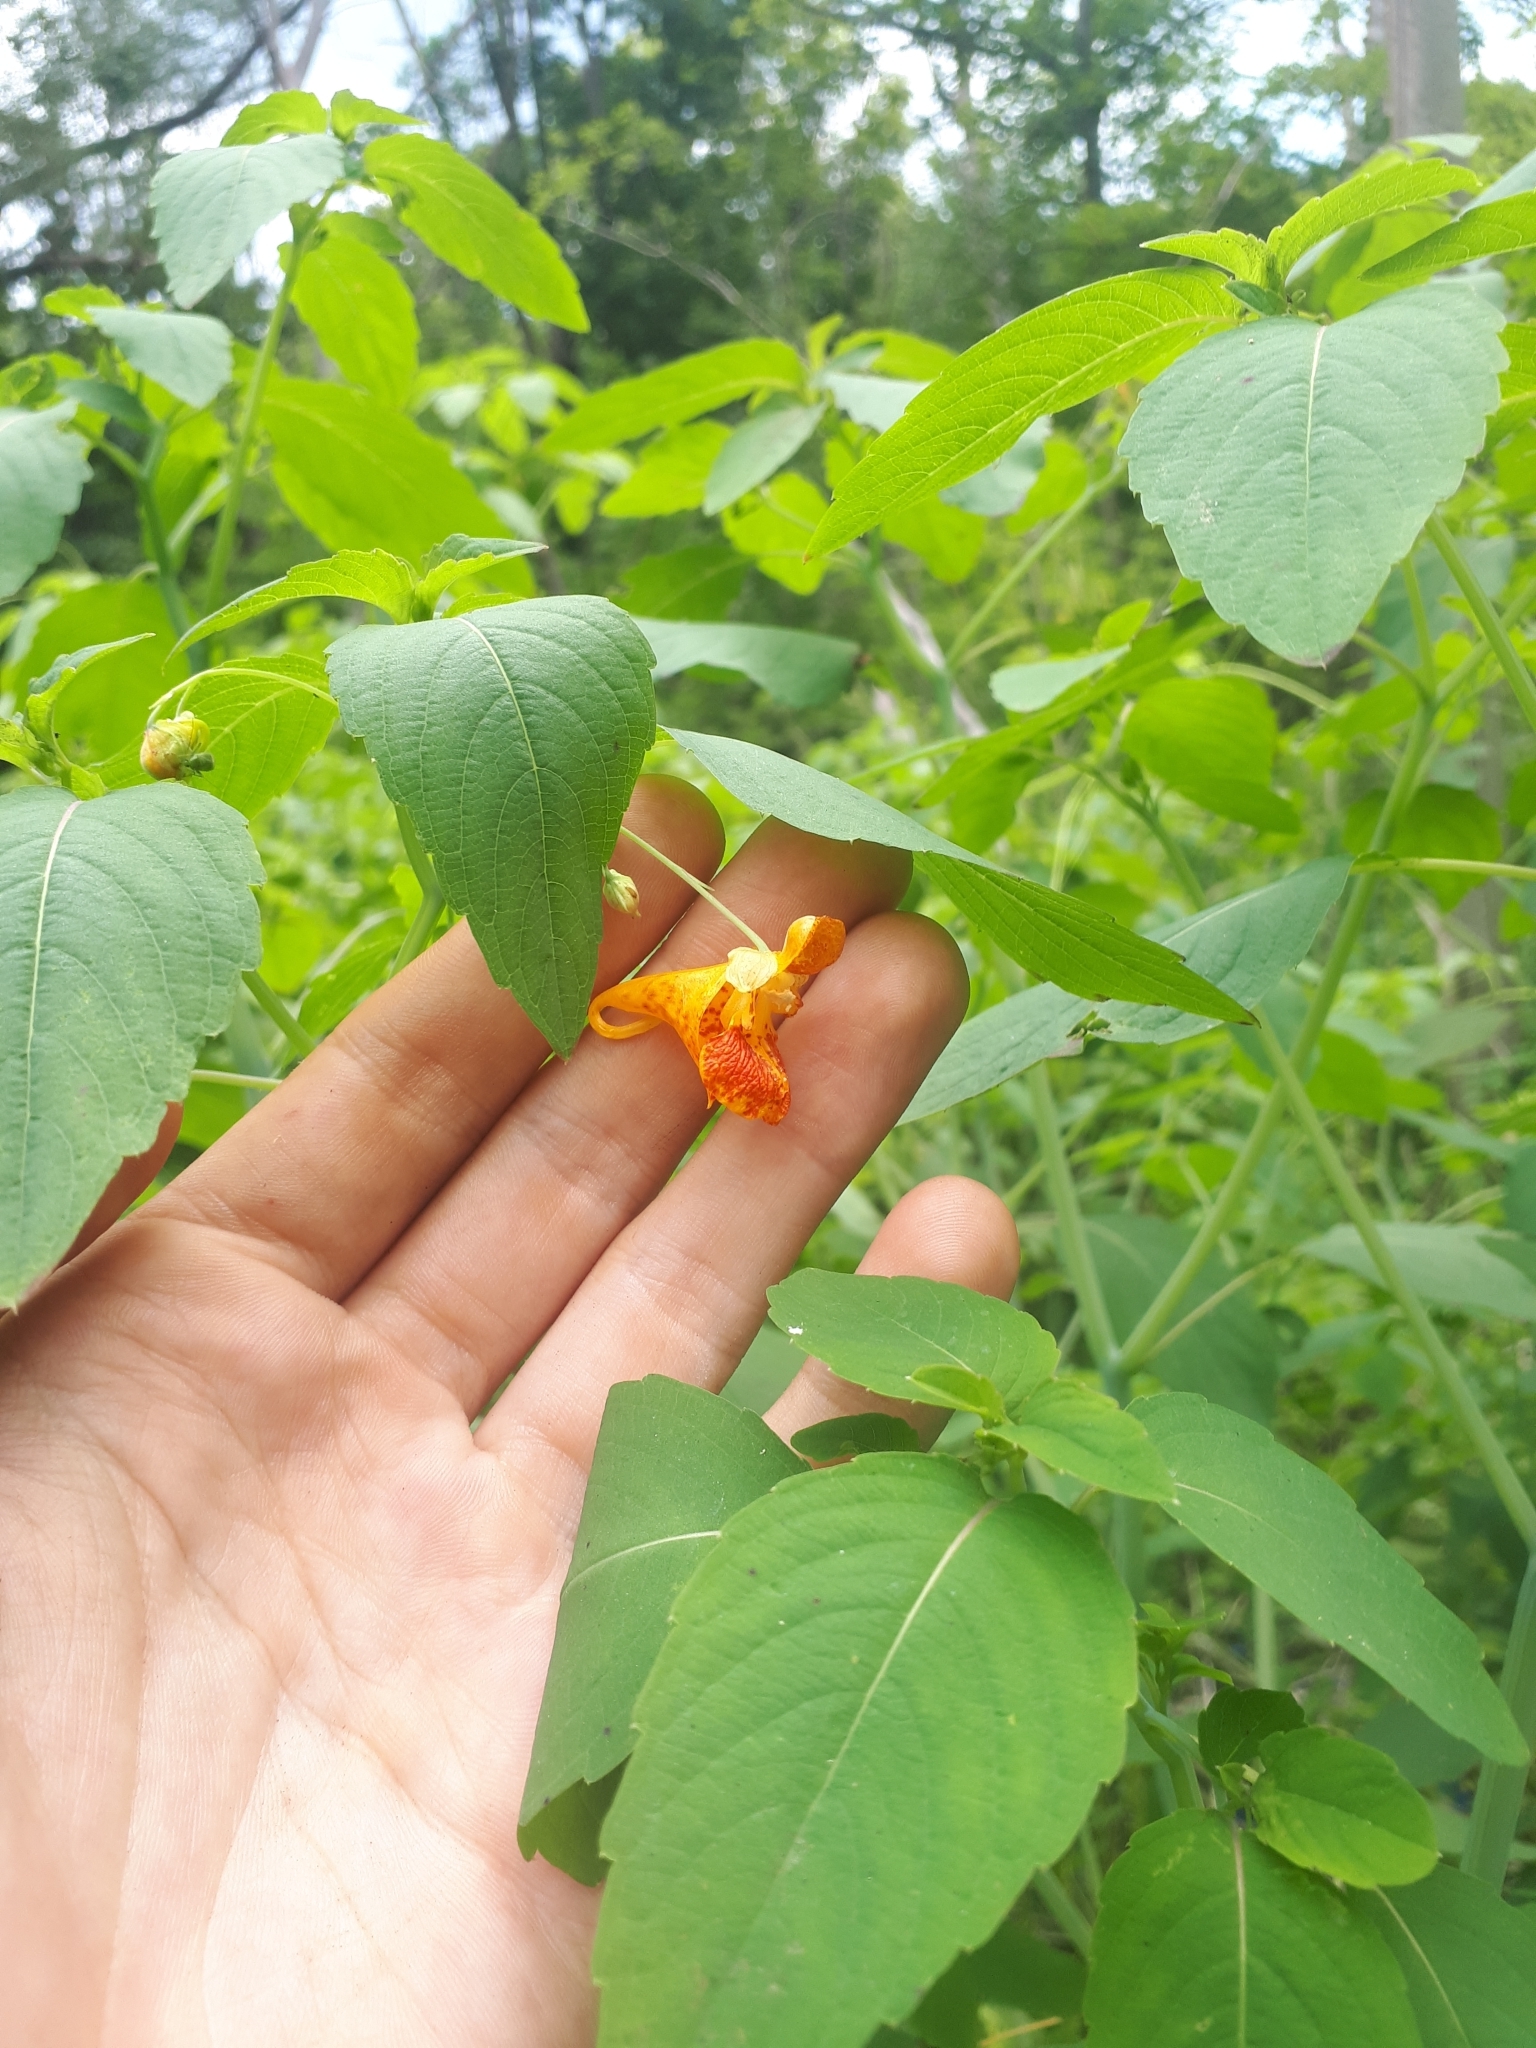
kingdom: Plantae
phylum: Tracheophyta
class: Magnoliopsida
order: Ericales
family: Balsaminaceae
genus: Impatiens
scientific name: Impatiens capensis
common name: Orange balsam
